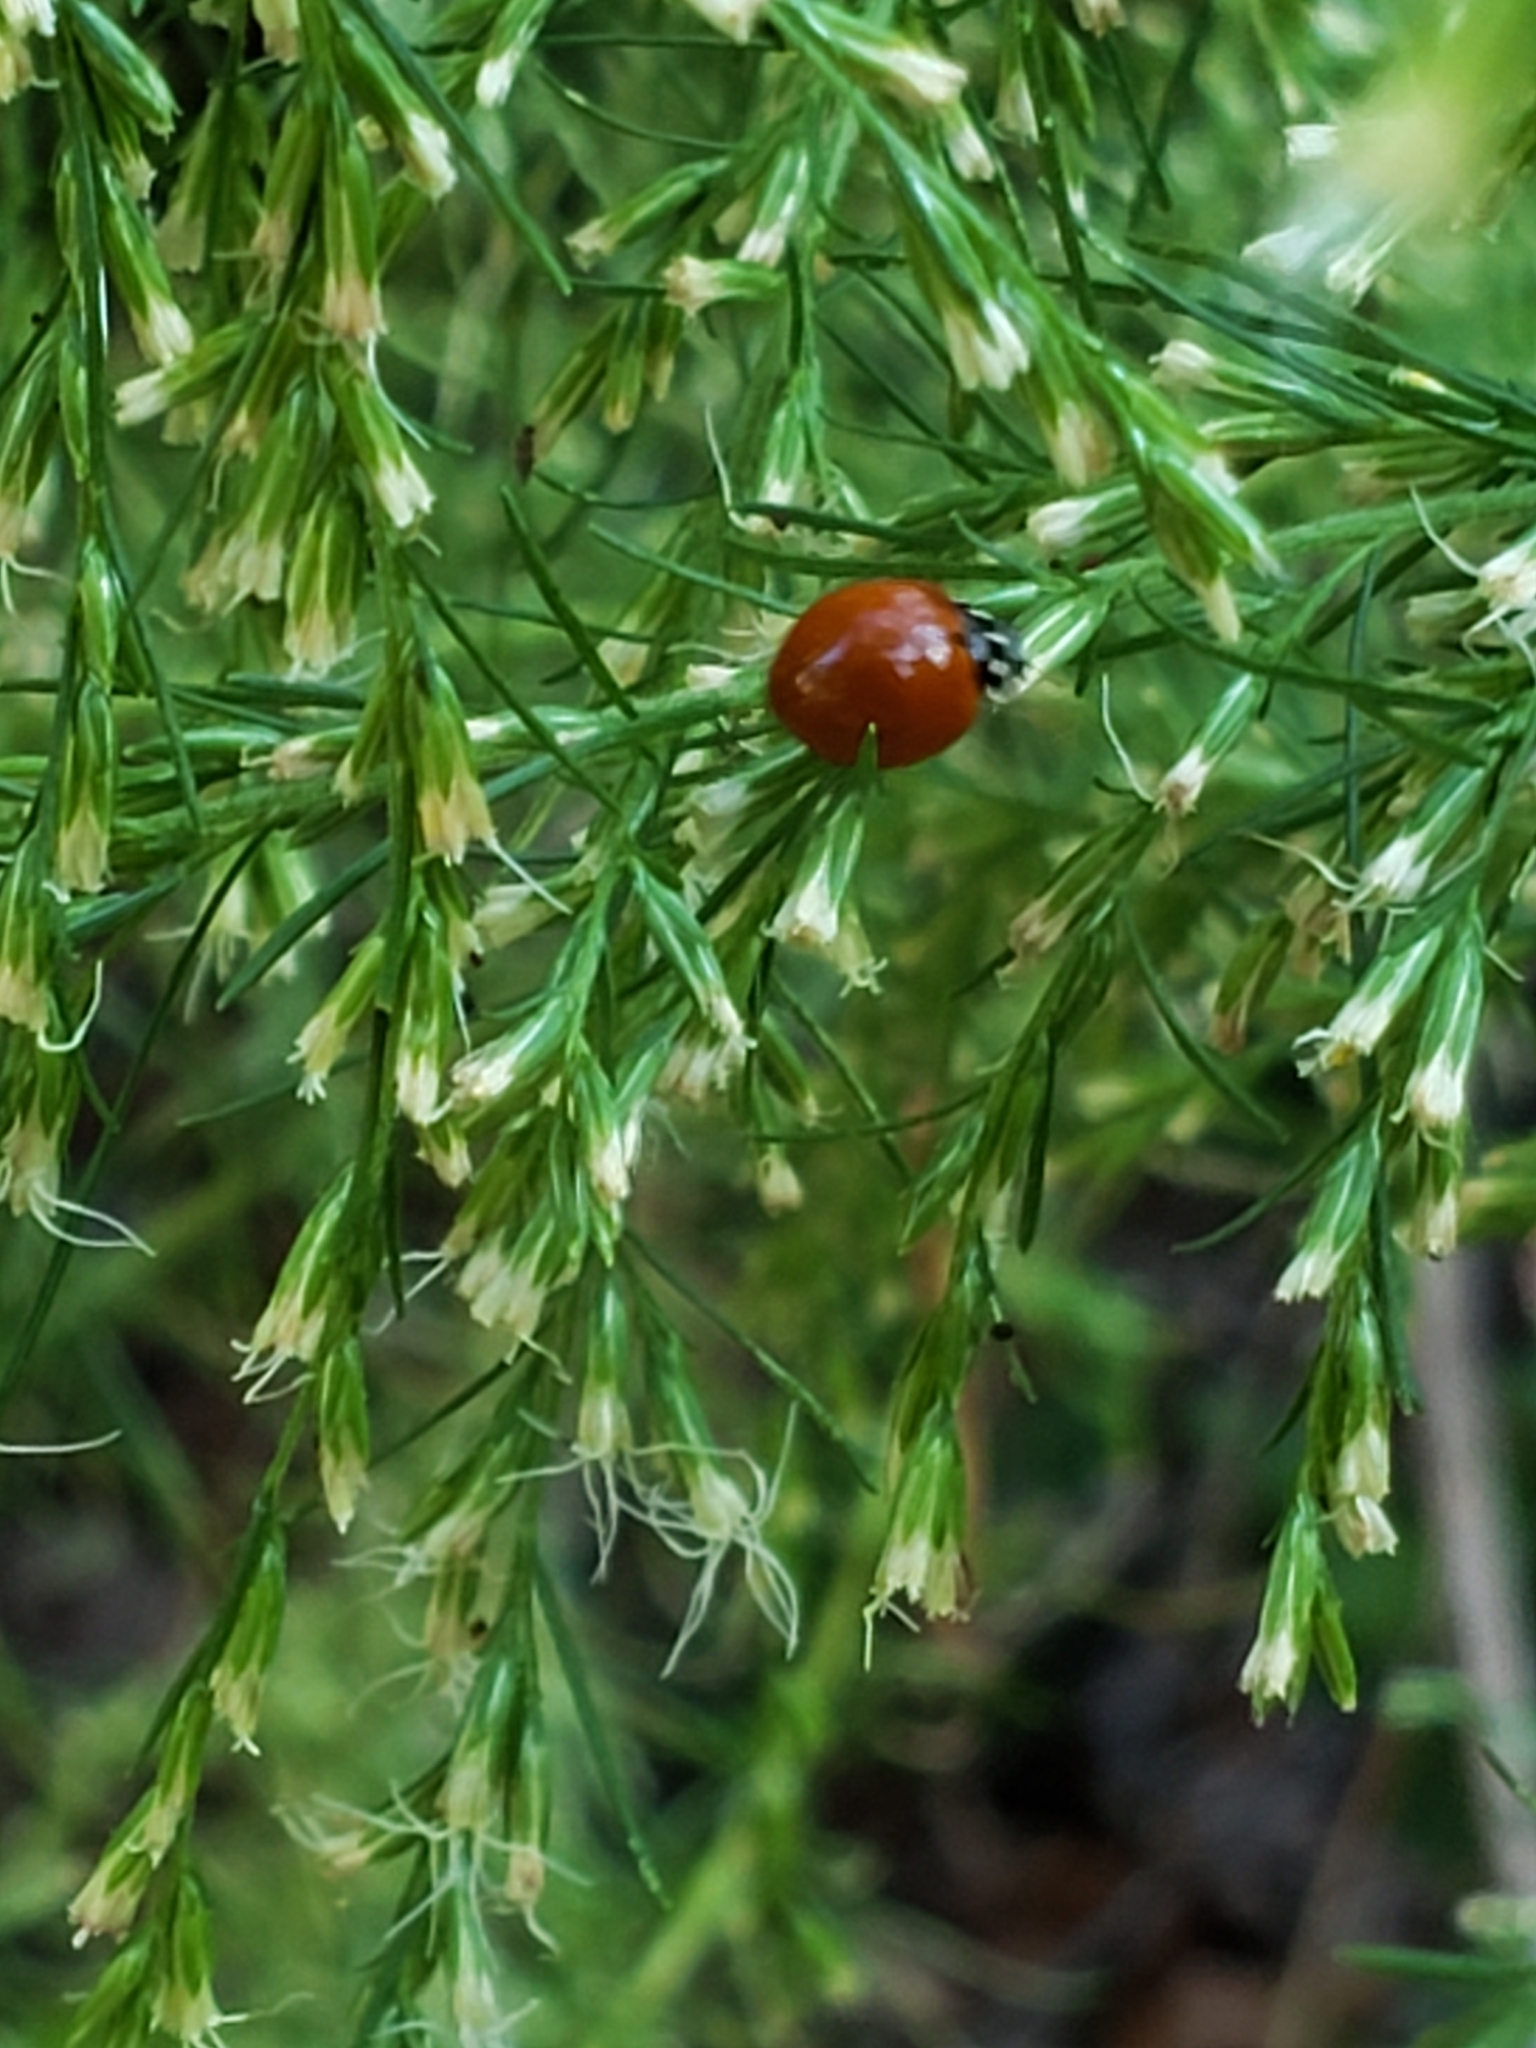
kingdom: Animalia
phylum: Arthropoda
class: Insecta
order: Coleoptera
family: Coccinellidae
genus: Cycloneda
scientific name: Cycloneda sanguinea
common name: Ladybird beetle
